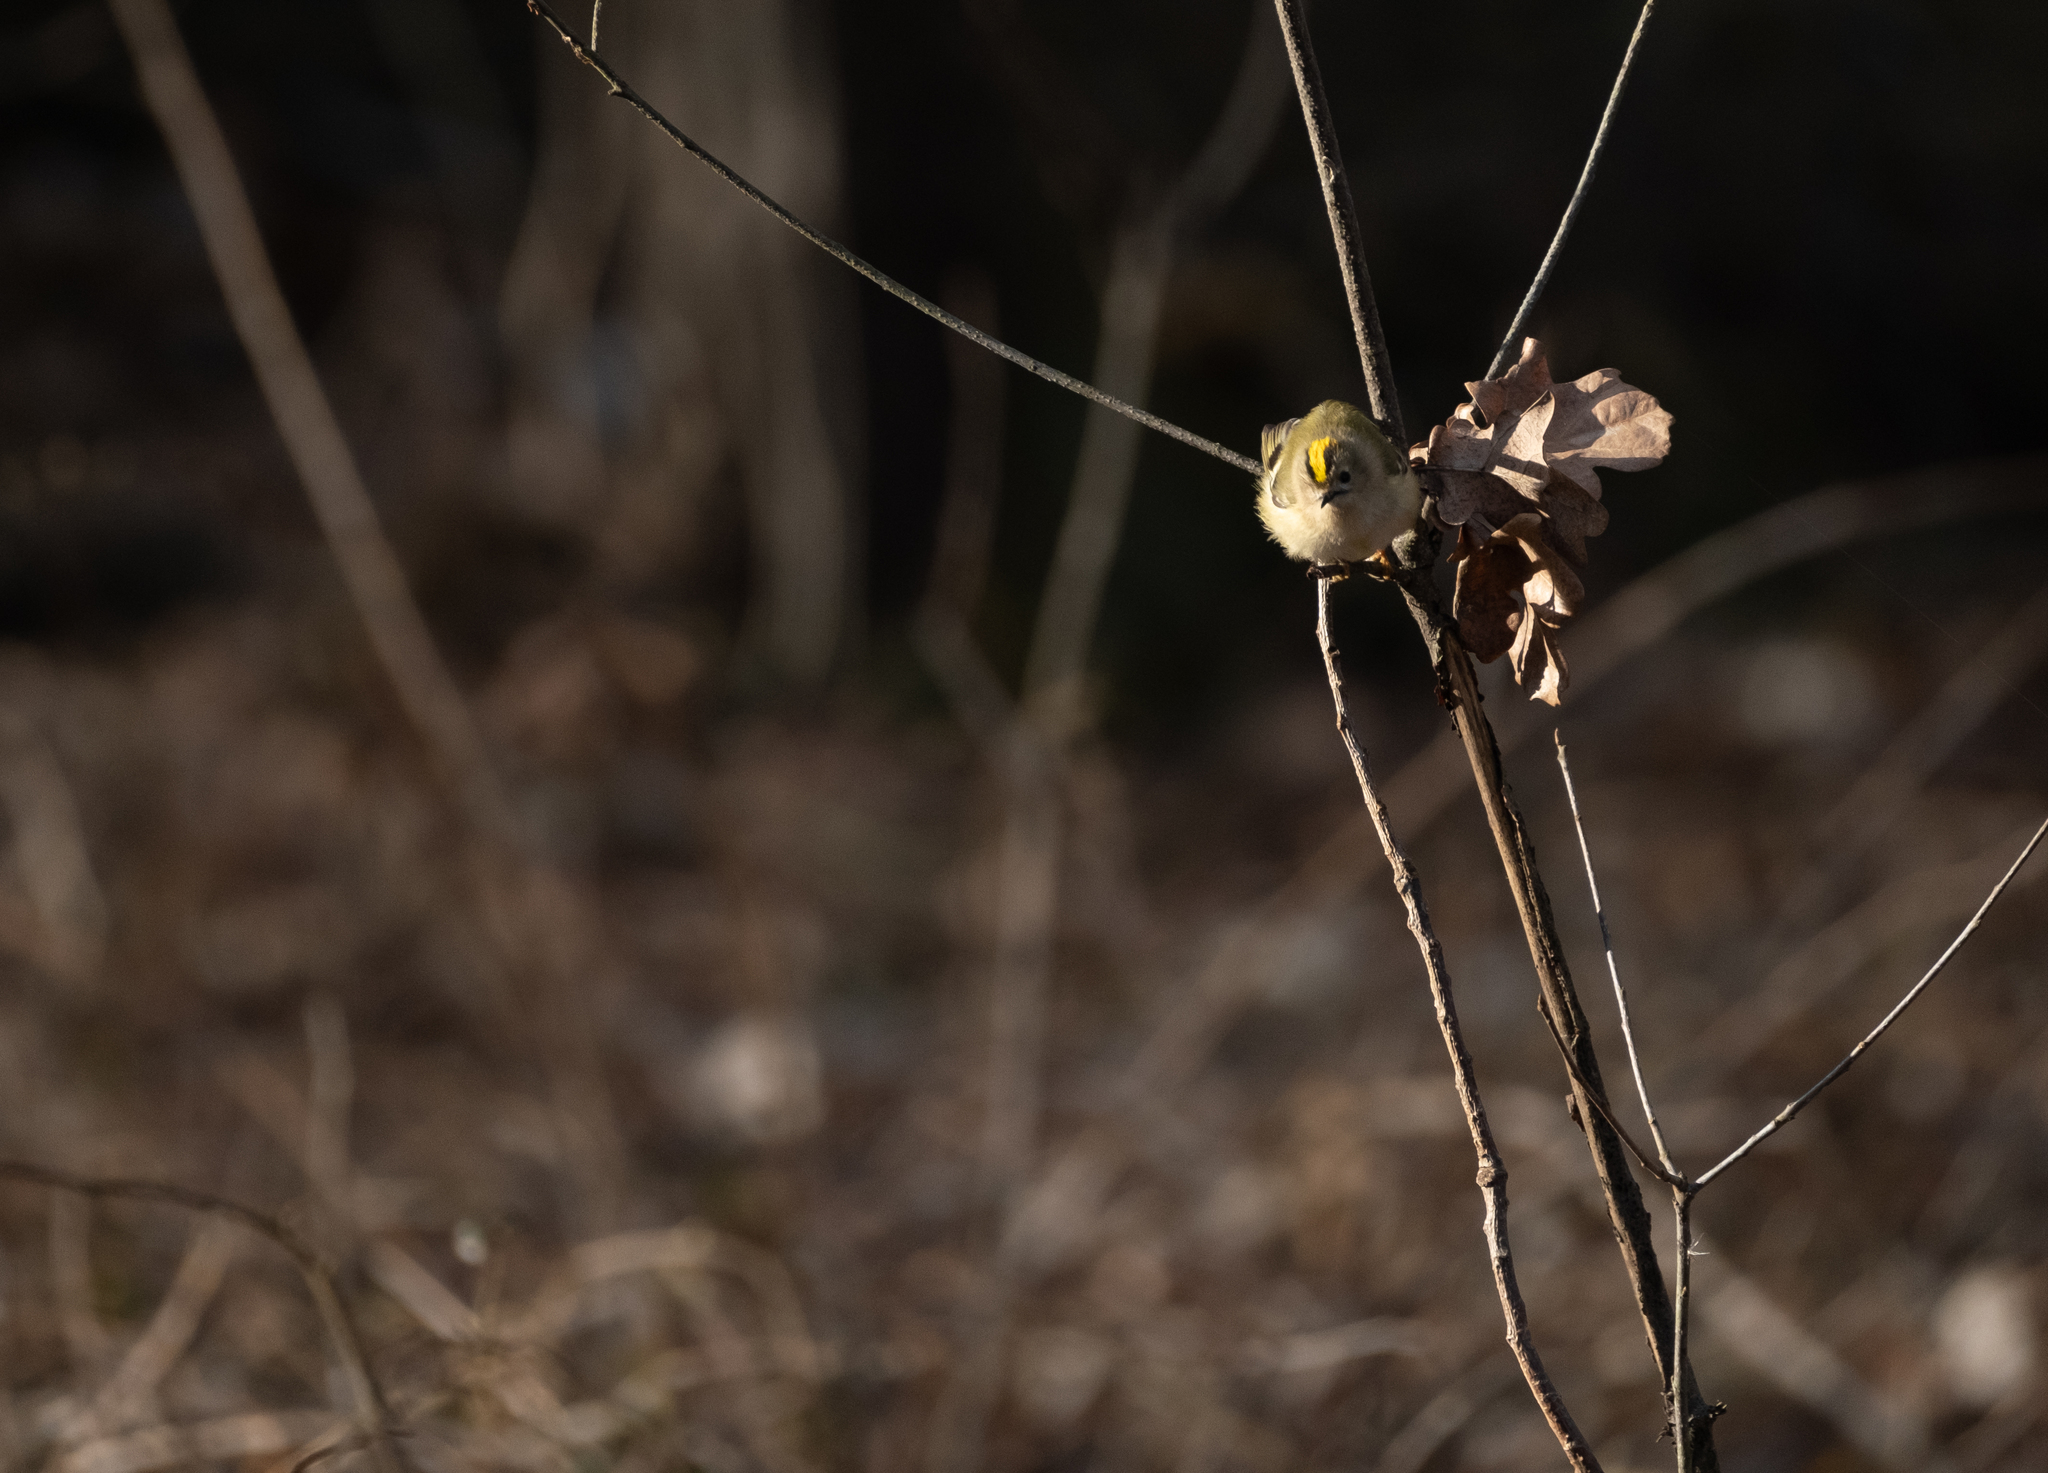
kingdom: Animalia
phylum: Chordata
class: Aves
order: Passeriformes
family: Regulidae
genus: Regulus
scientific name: Regulus regulus
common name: Goldcrest
